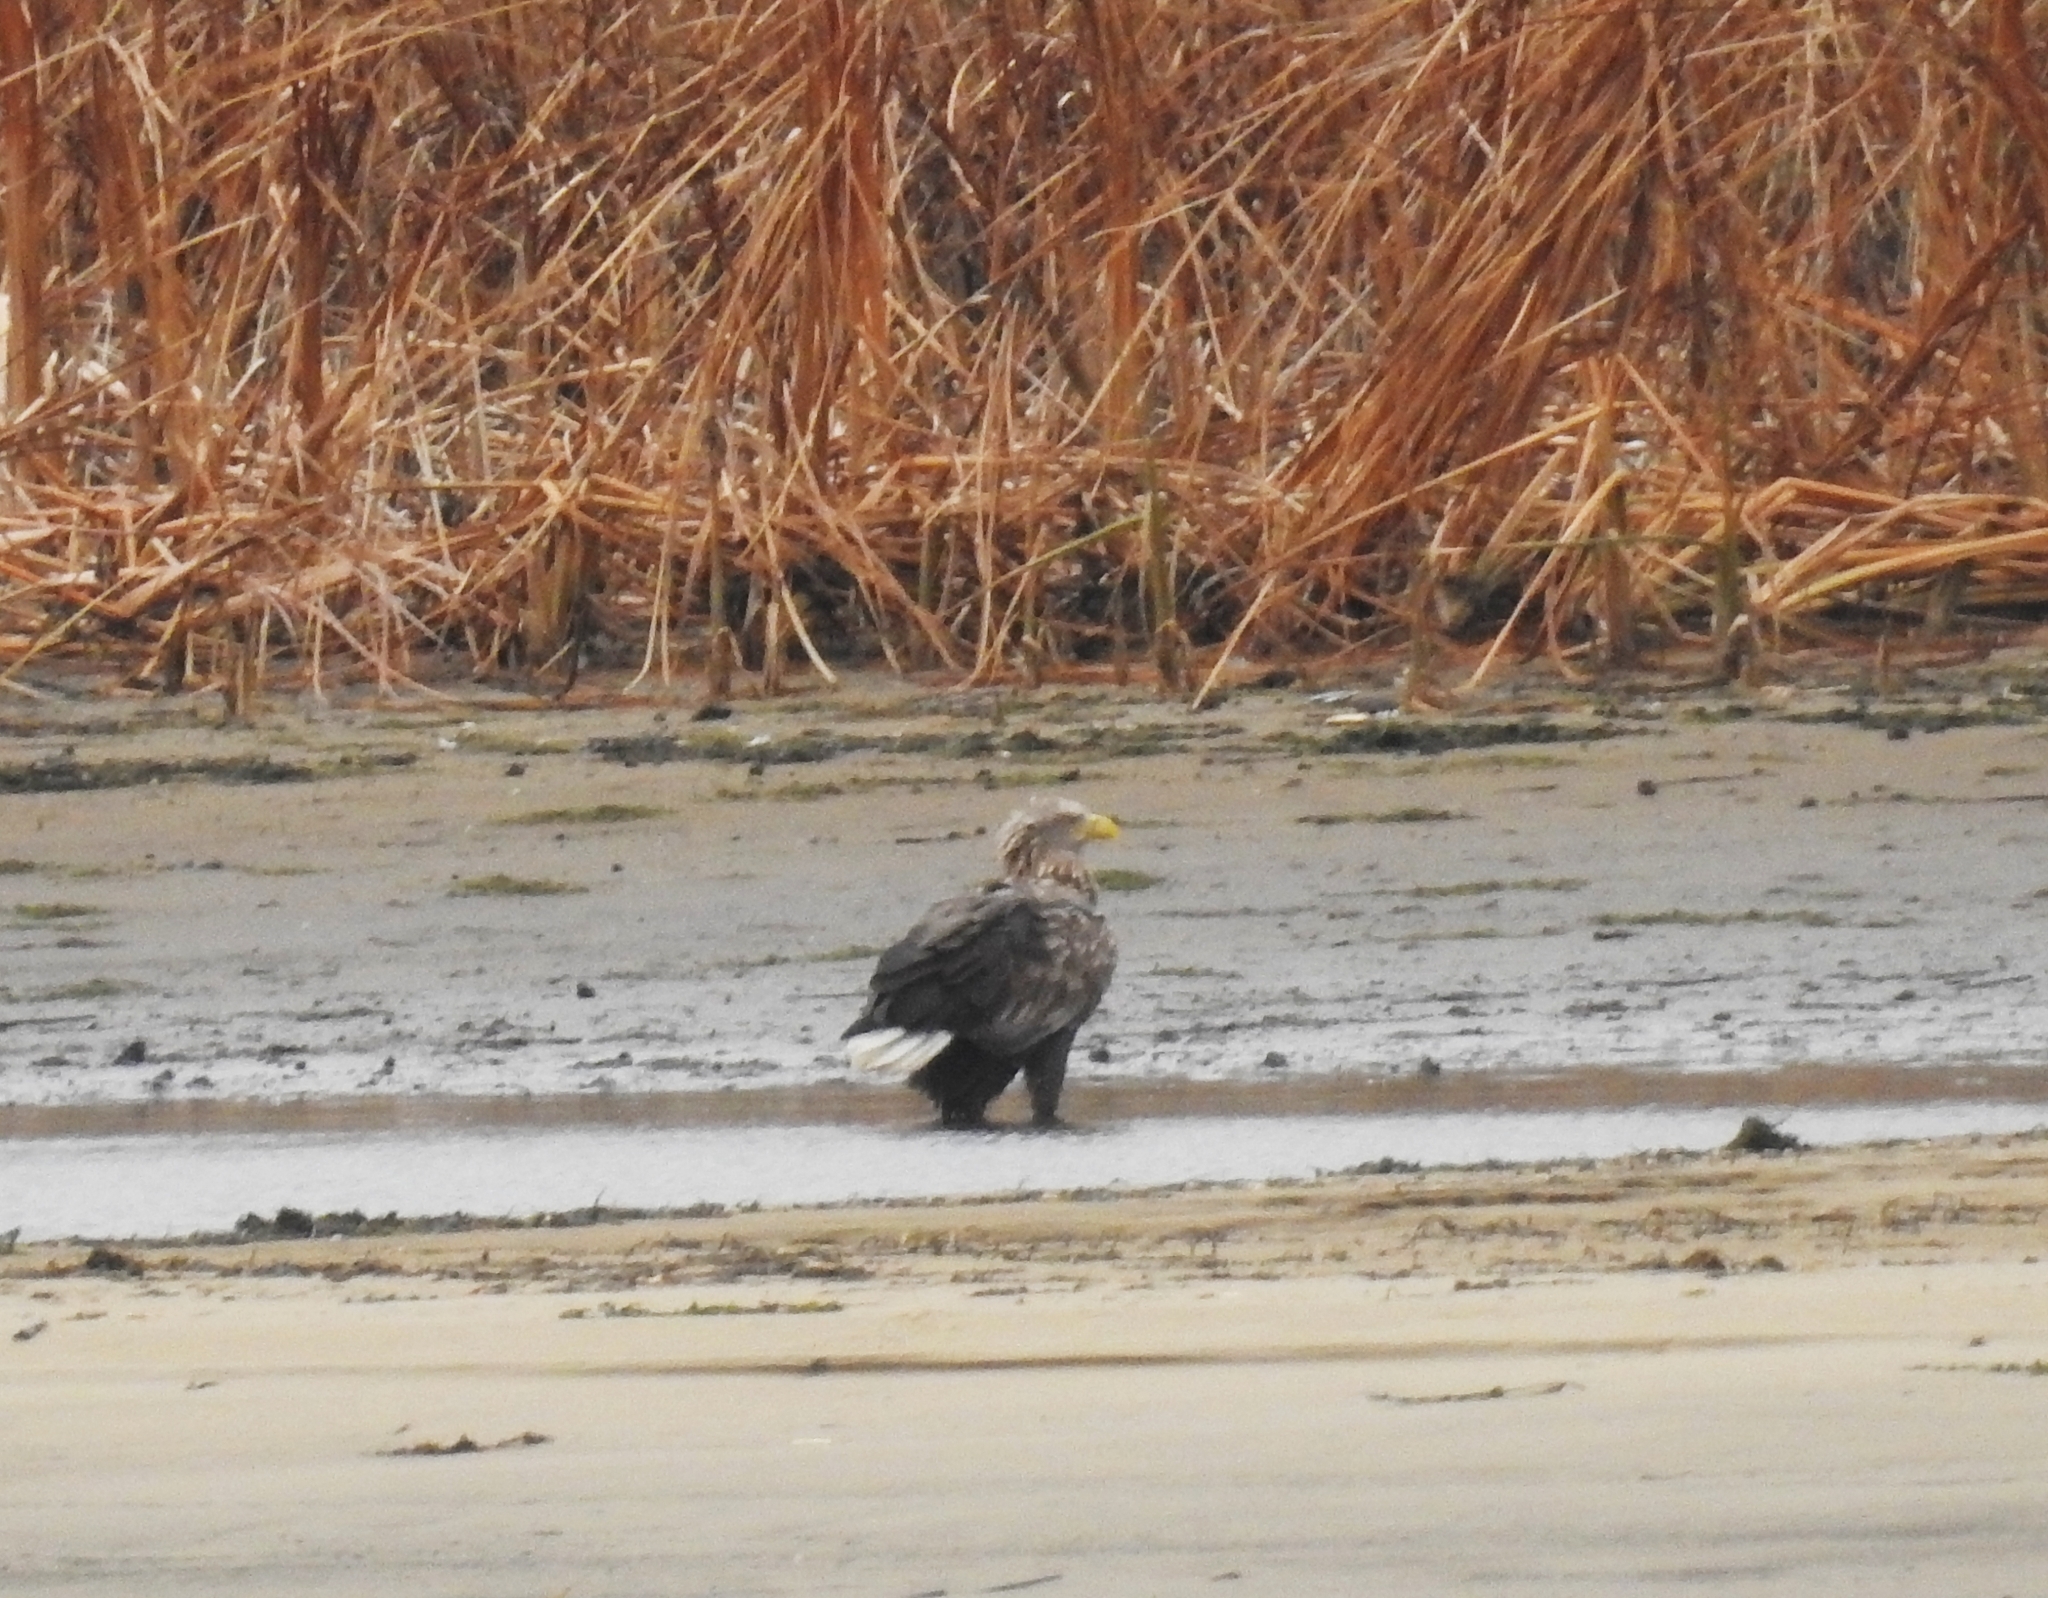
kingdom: Animalia
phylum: Chordata
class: Aves
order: Accipitriformes
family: Accipitridae
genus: Haliaeetus
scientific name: Haliaeetus albicilla
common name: White-tailed eagle
